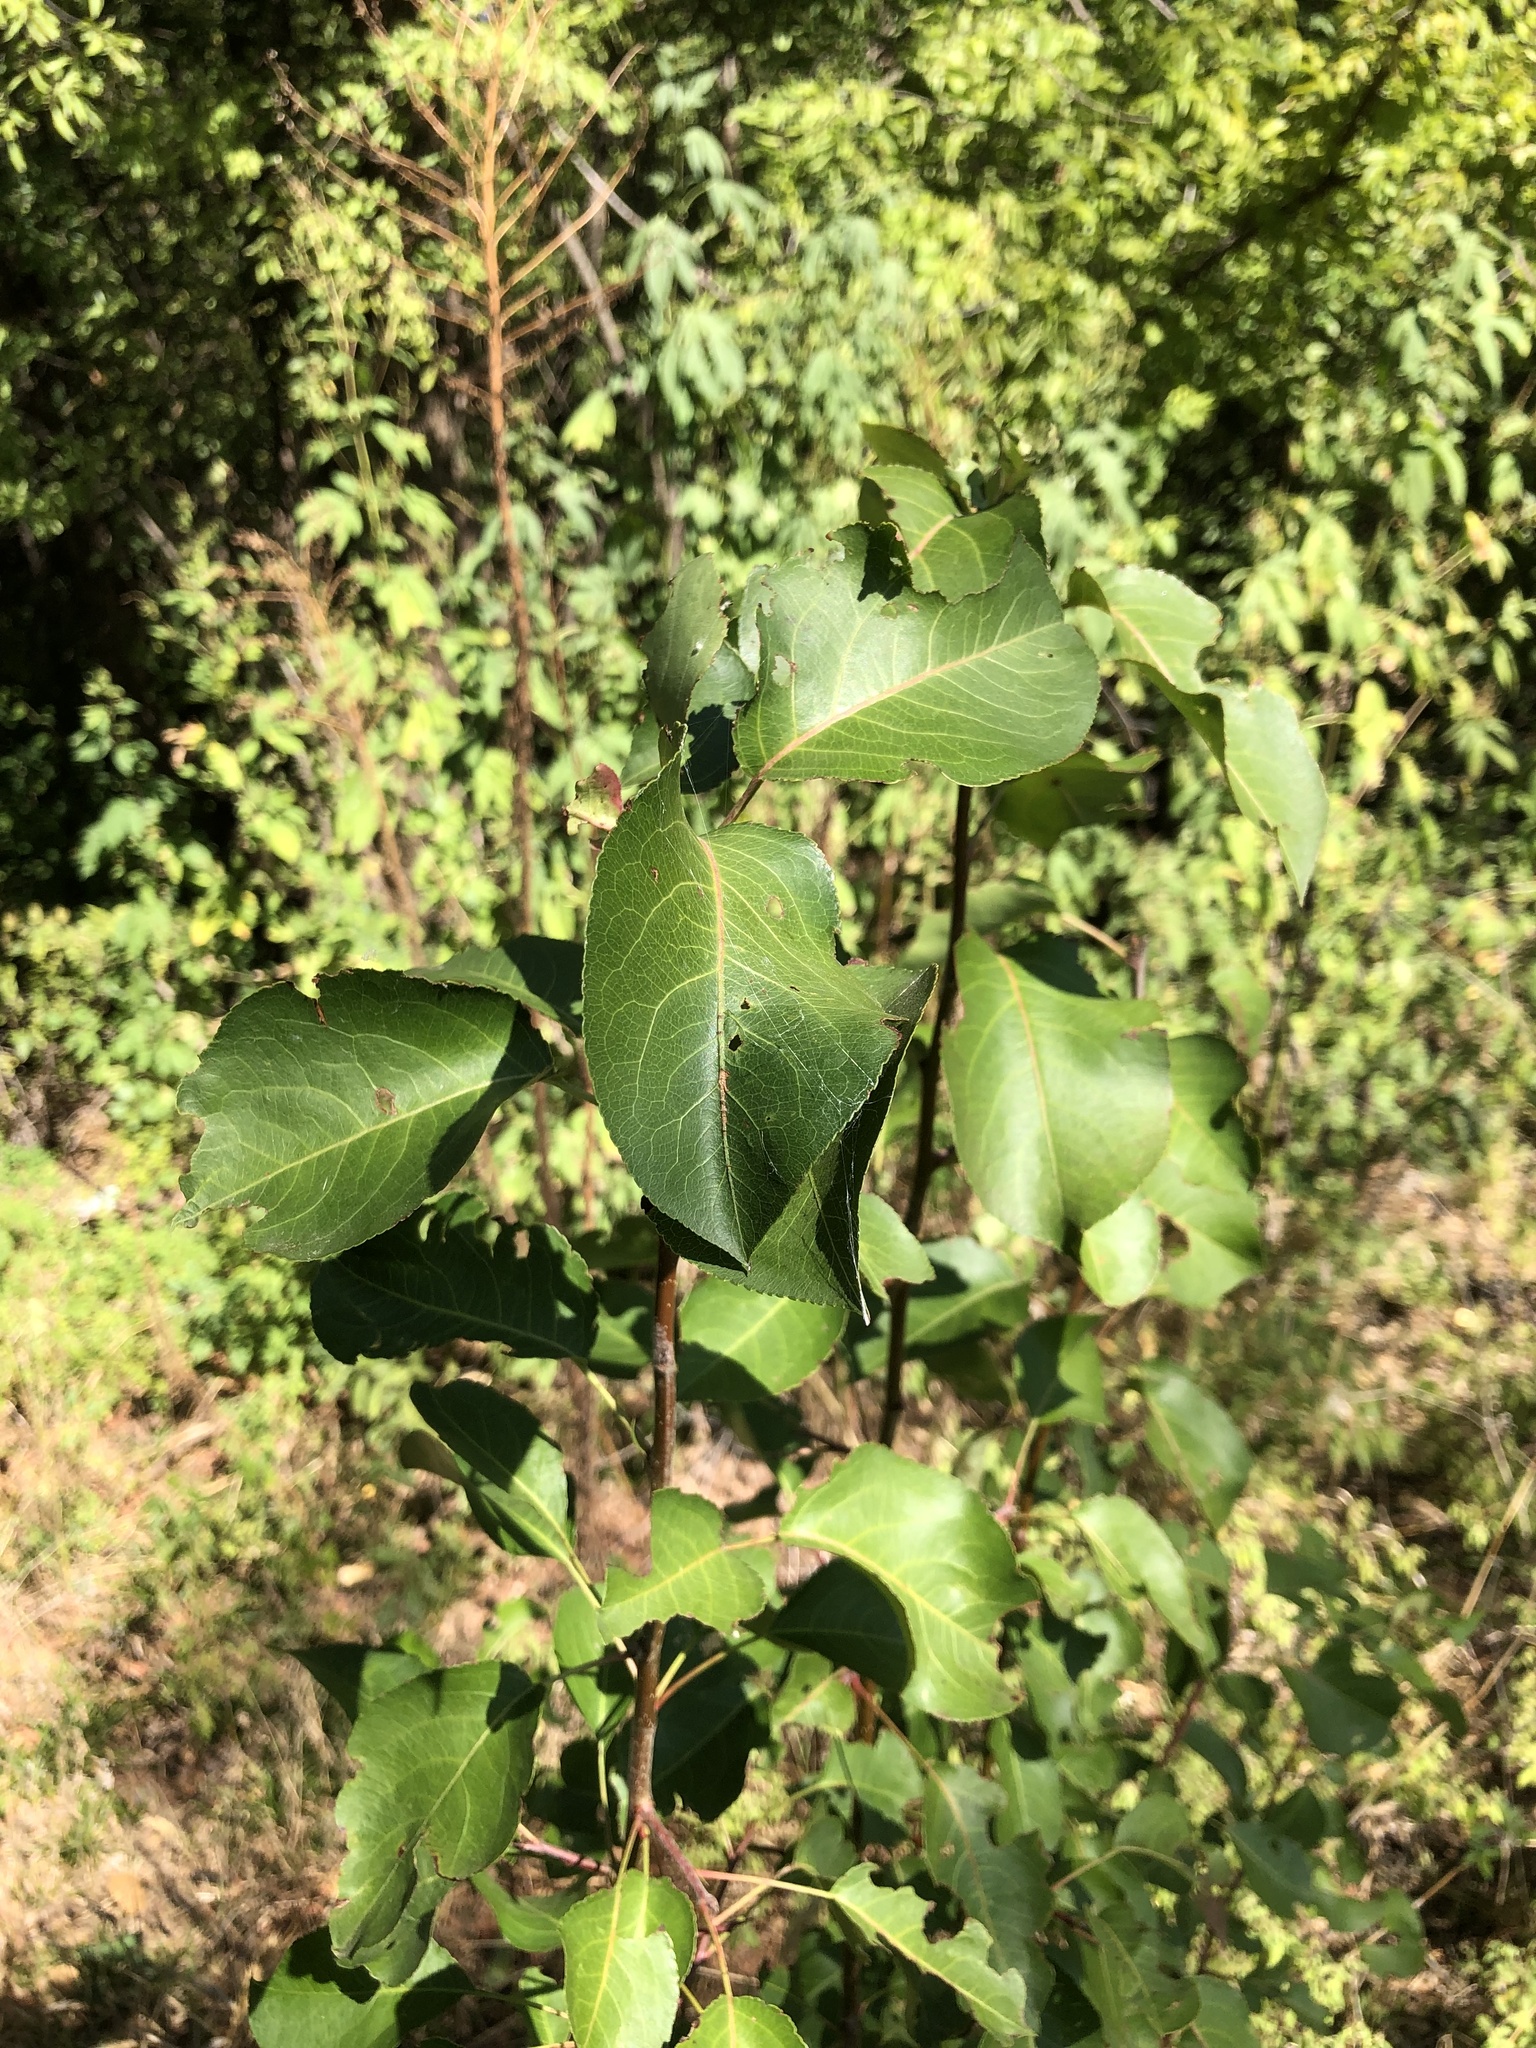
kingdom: Plantae
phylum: Tracheophyta
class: Magnoliopsida
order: Rosales
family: Rosaceae
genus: Pyrus
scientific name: Pyrus calleryana
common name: Callery pear
